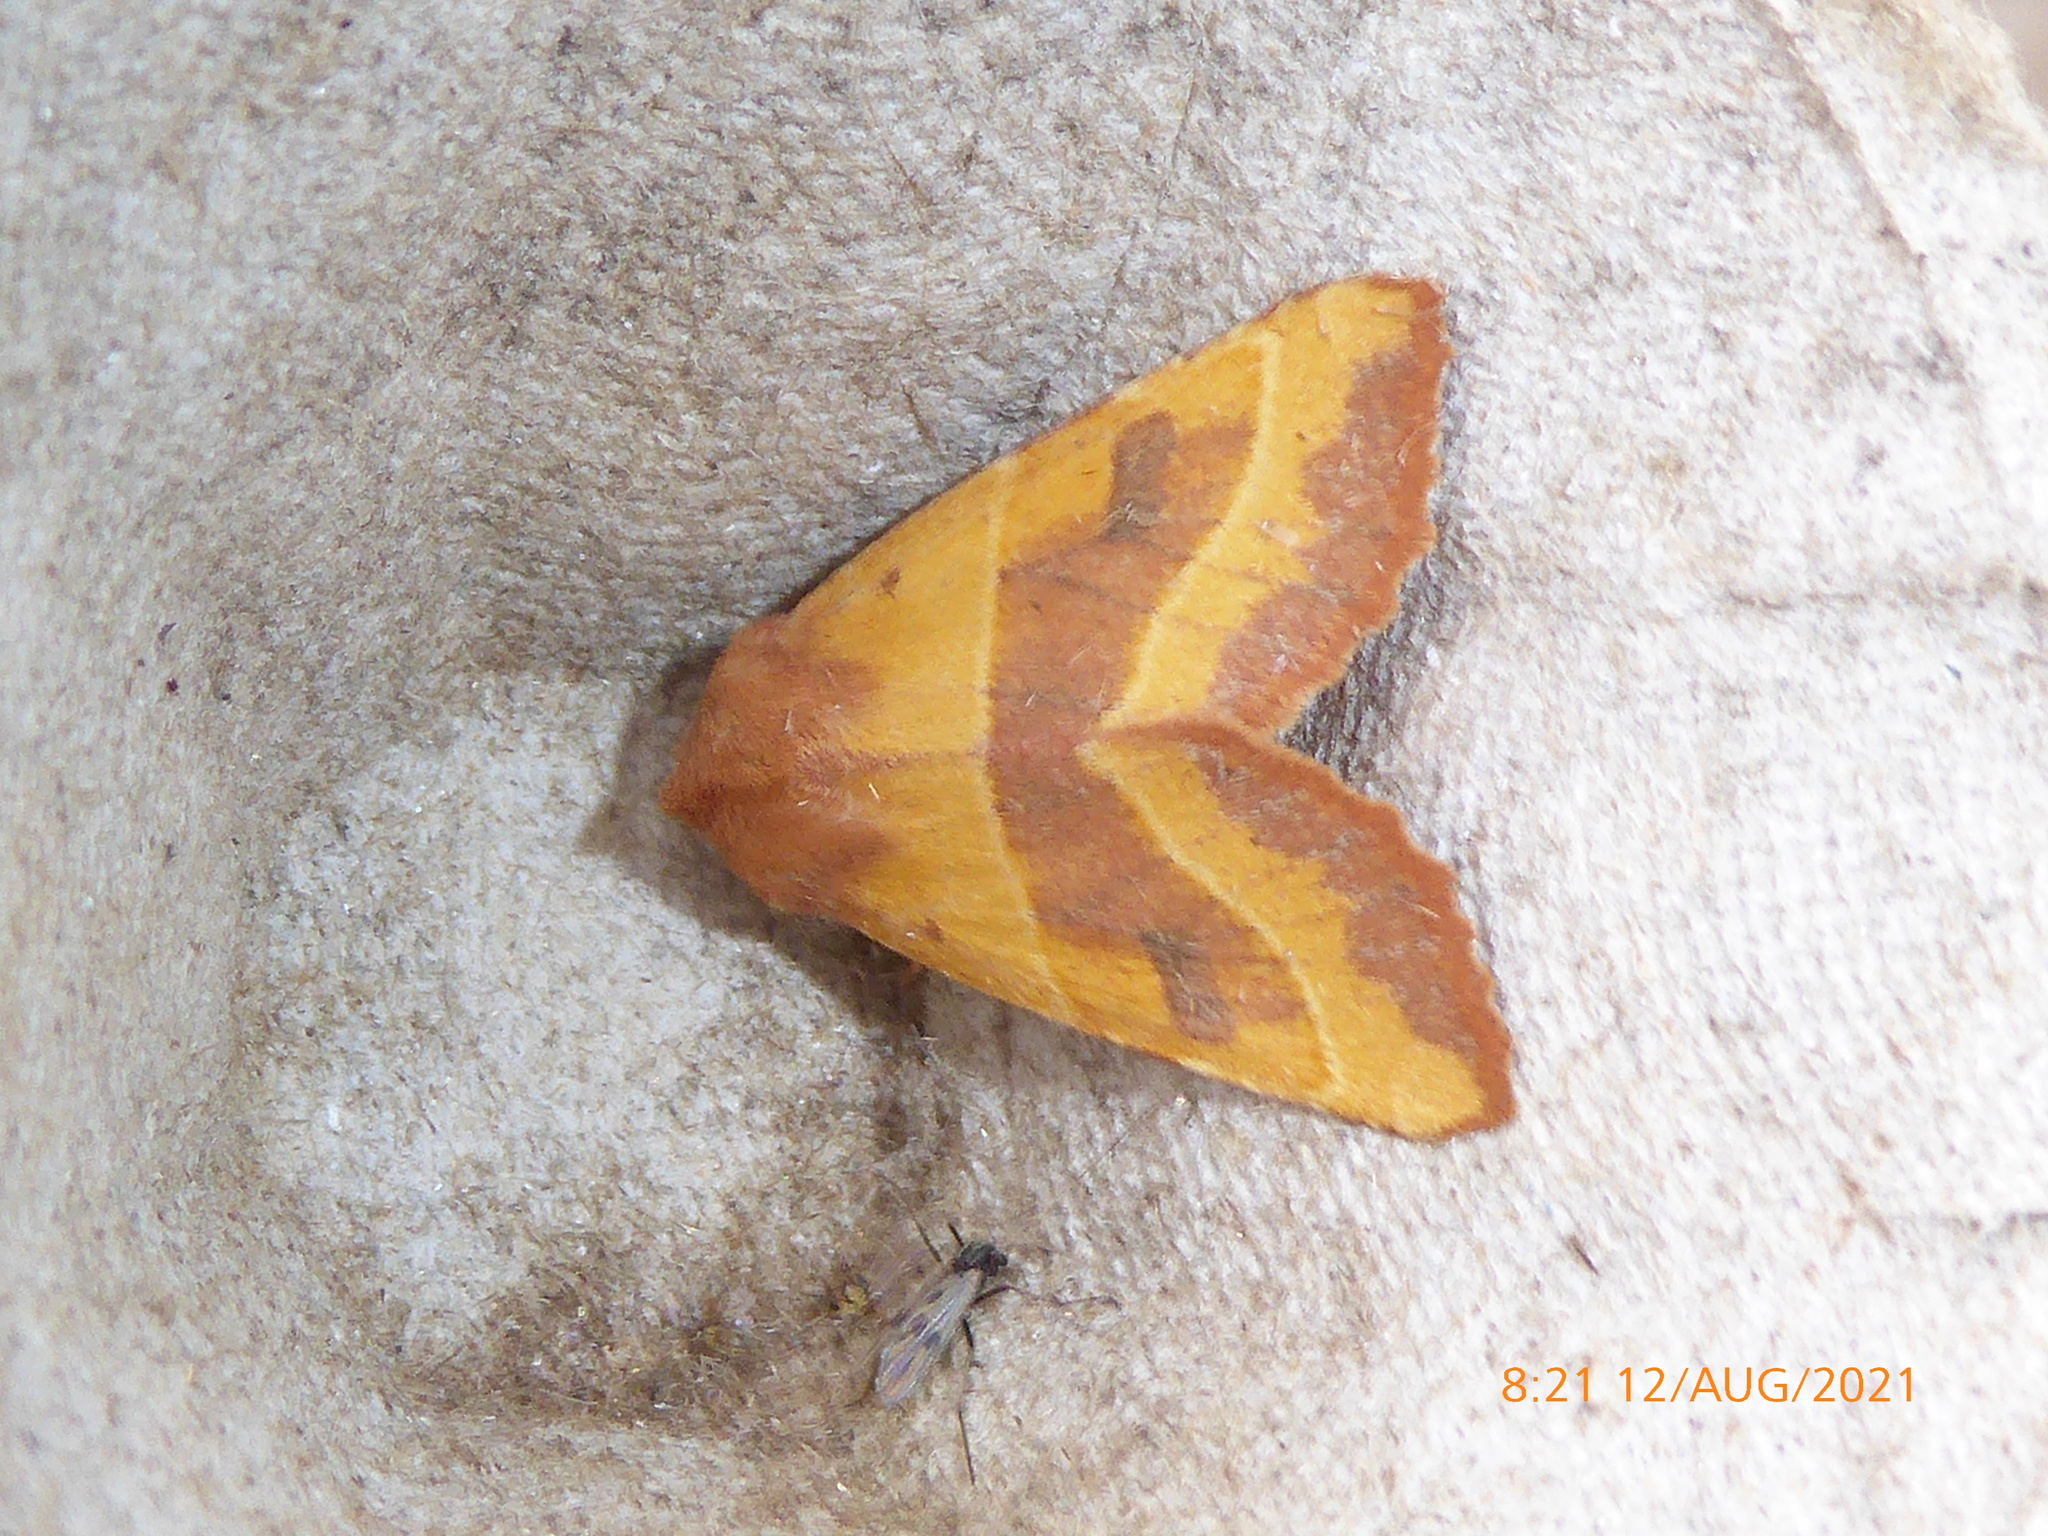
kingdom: Animalia
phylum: Arthropoda
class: Insecta
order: Lepidoptera
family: Noctuidae
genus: Atethmia
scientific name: Atethmia centrago
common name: Centre-barred sallow
